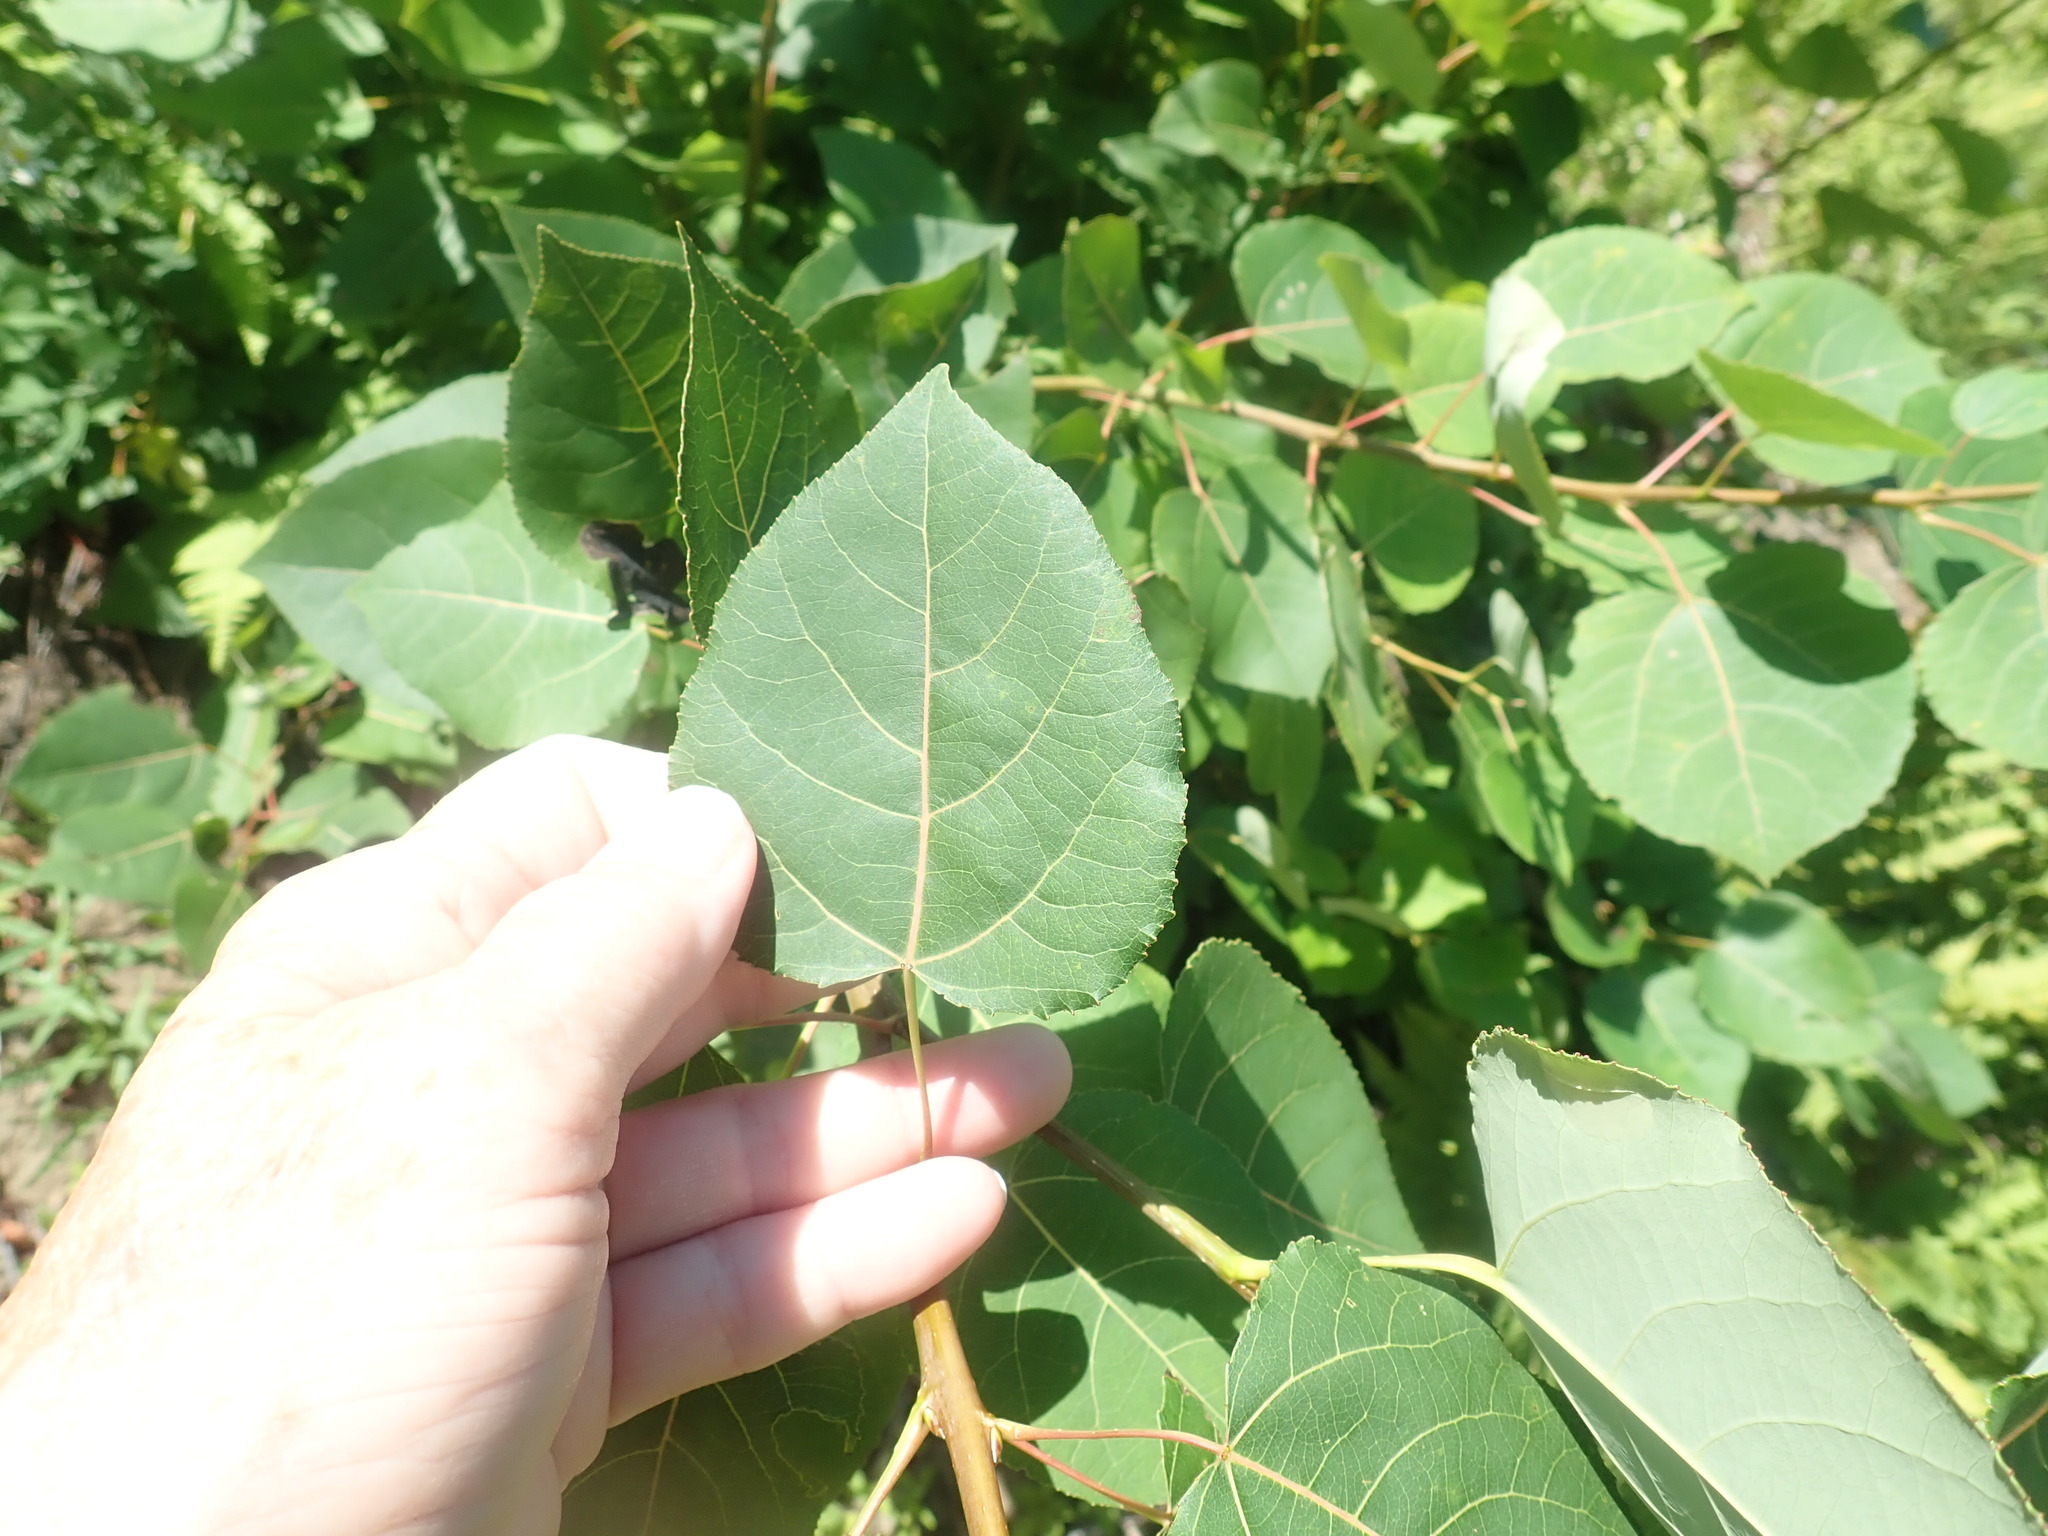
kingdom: Plantae
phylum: Tracheophyta
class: Magnoliopsida
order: Malpighiales
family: Salicaceae
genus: Populus
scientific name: Populus tremuloides
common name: Quaking aspen
